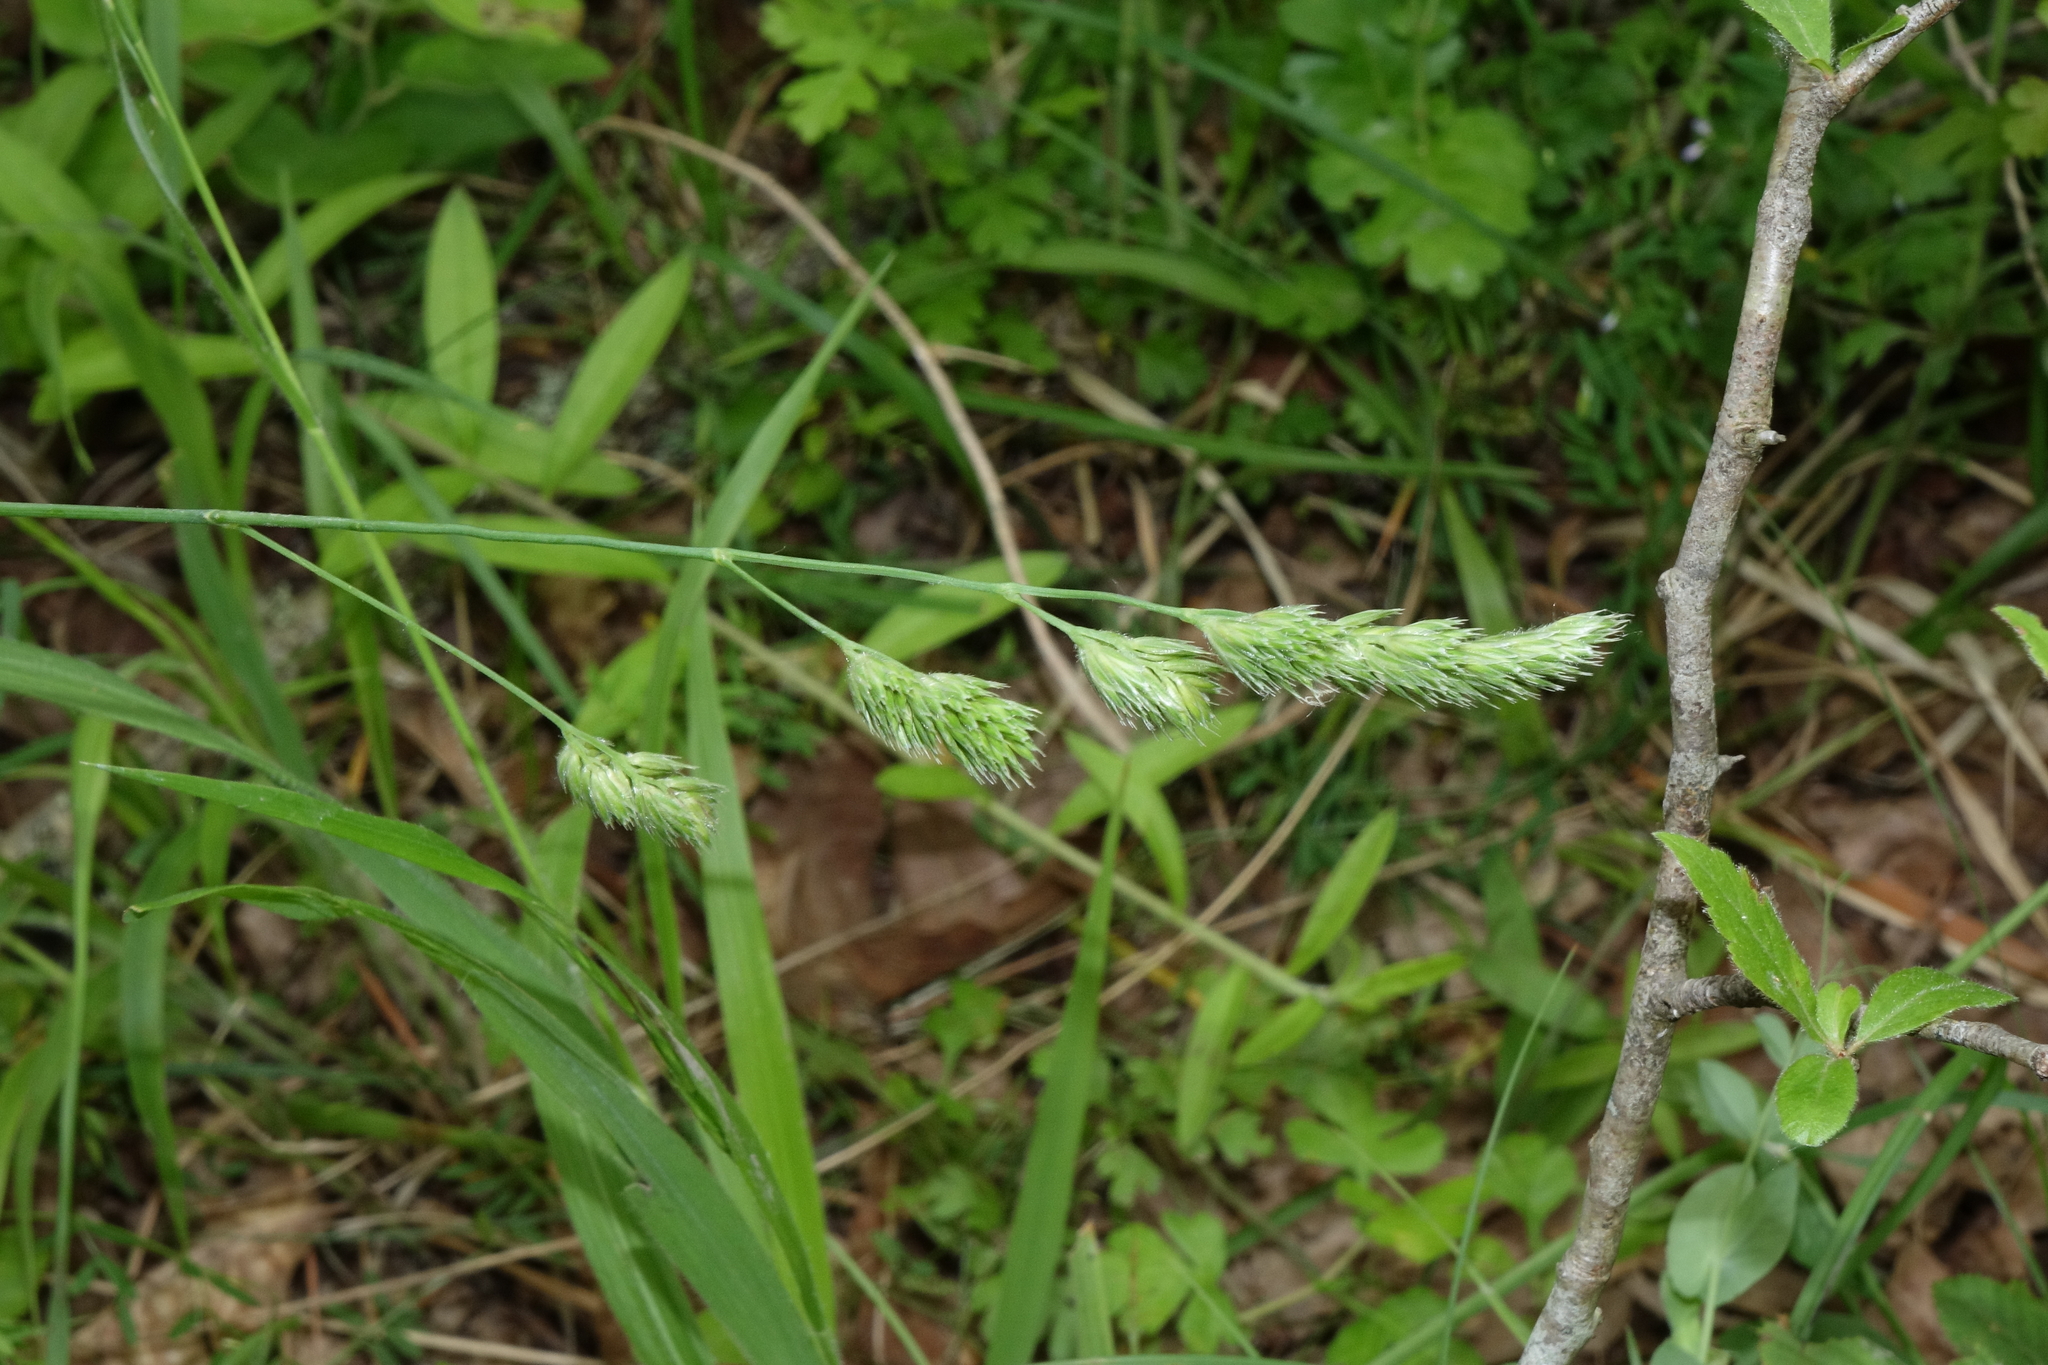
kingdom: Plantae
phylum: Tracheophyta
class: Liliopsida
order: Poales
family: Poaceae
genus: Dactylis
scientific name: Dactylis glomerata
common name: Orchardgrass
